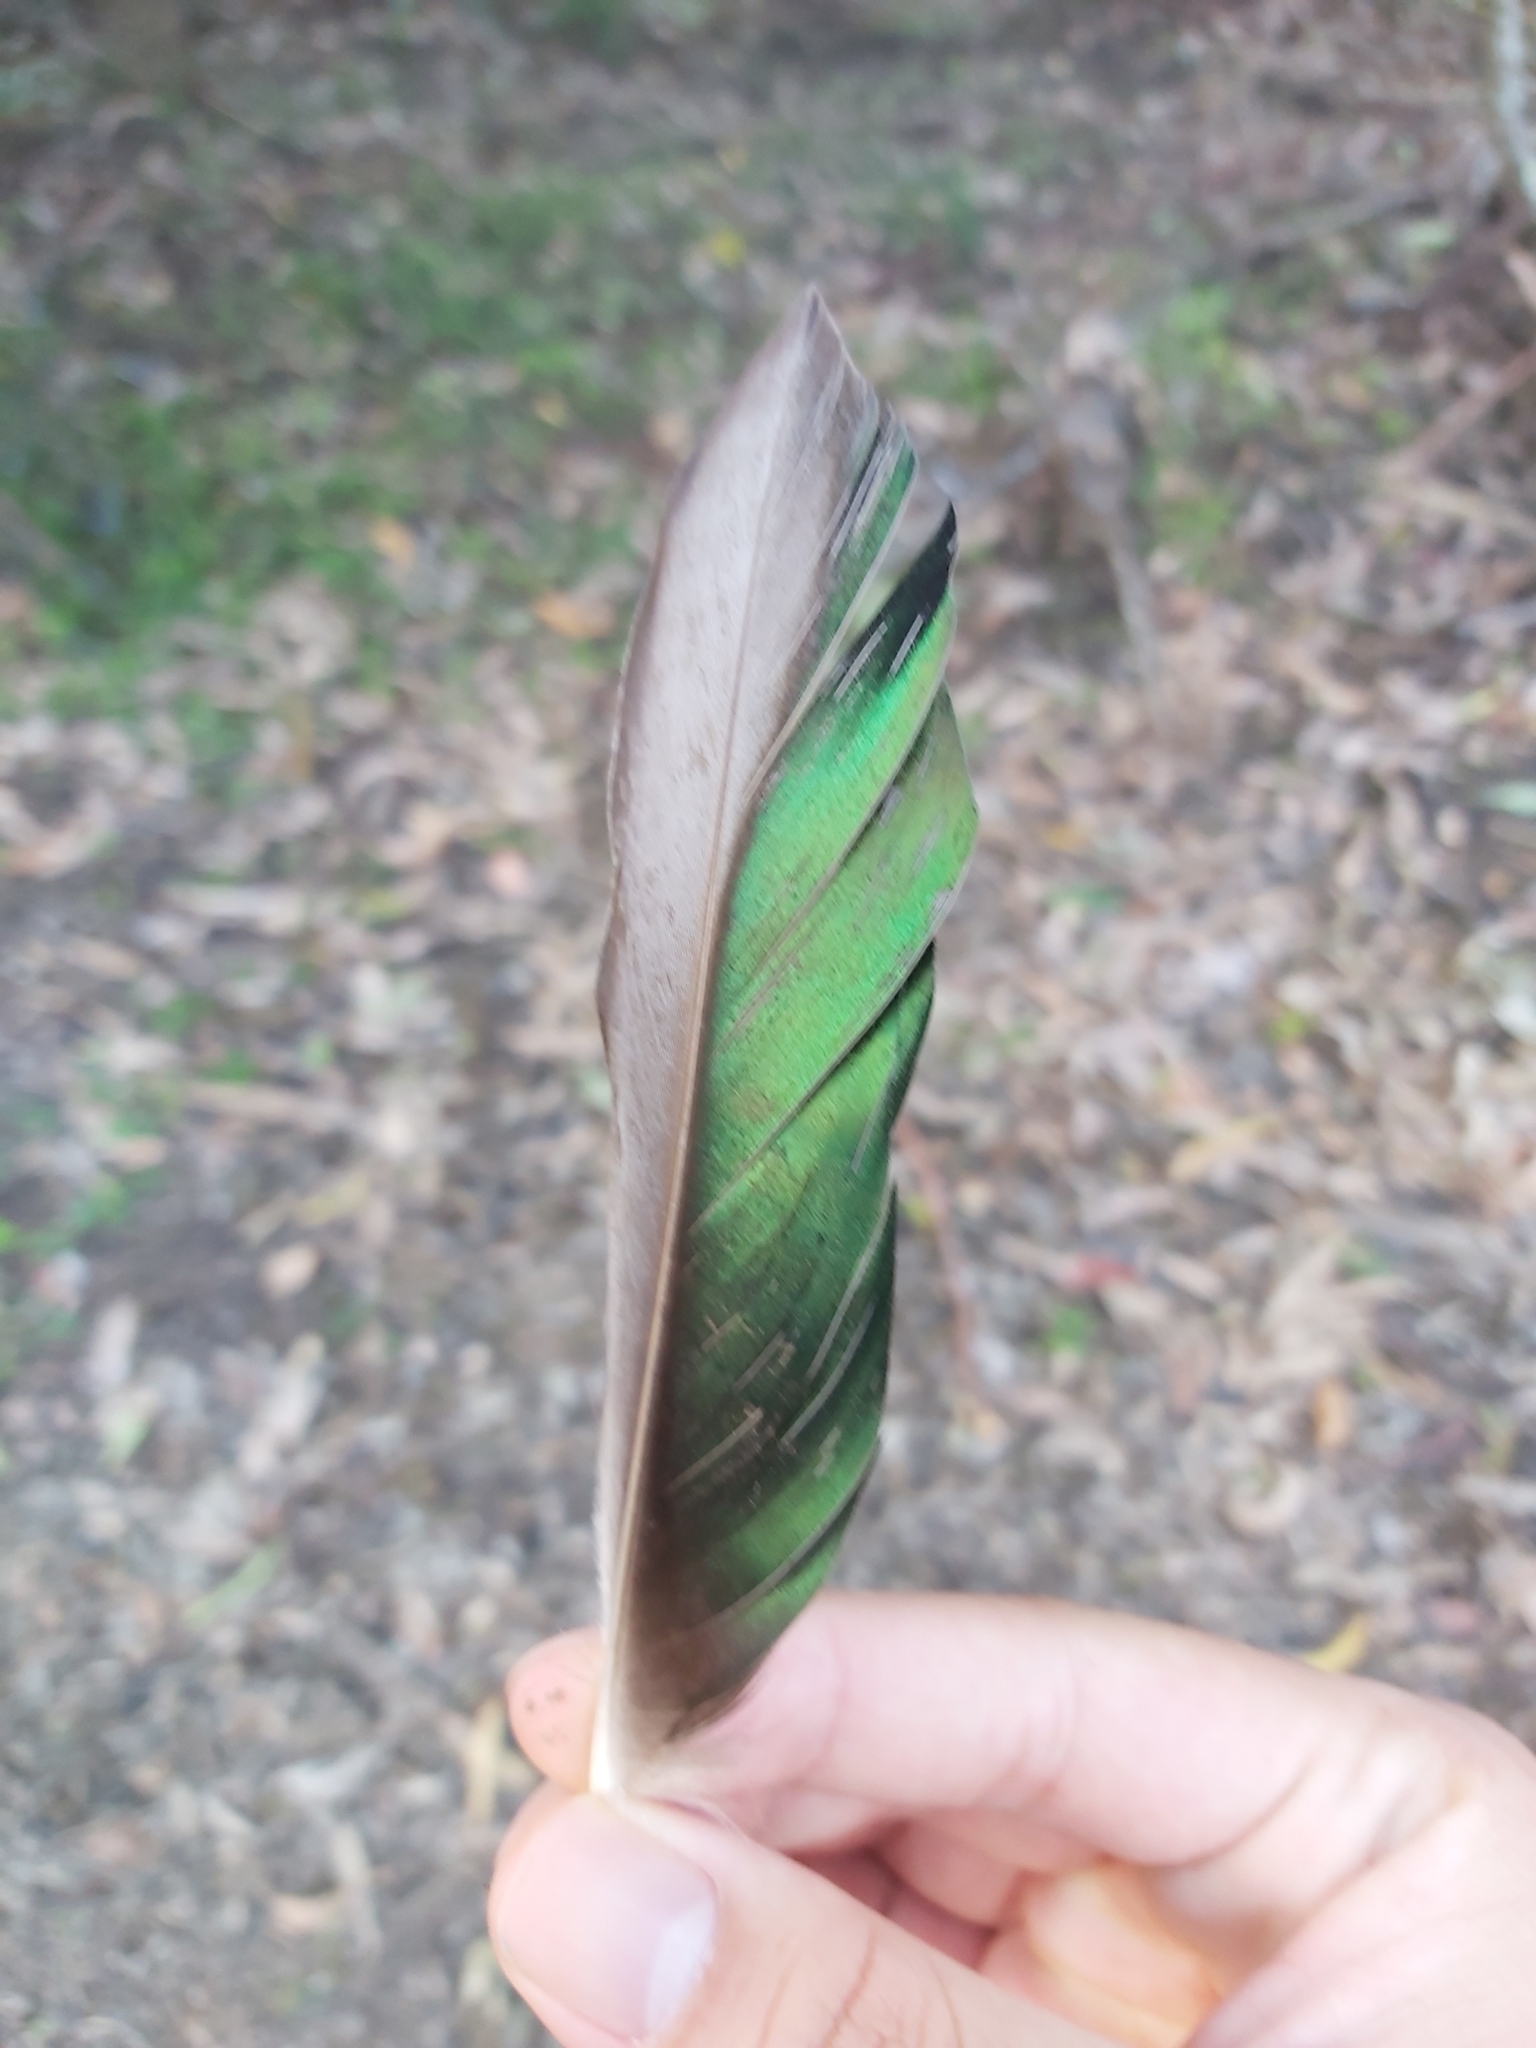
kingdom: Animalia
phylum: Chordata
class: Aves
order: Anseriformes
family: Anatidae
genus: Chenonetta
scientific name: Chenonetta jubata
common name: Maned duck
